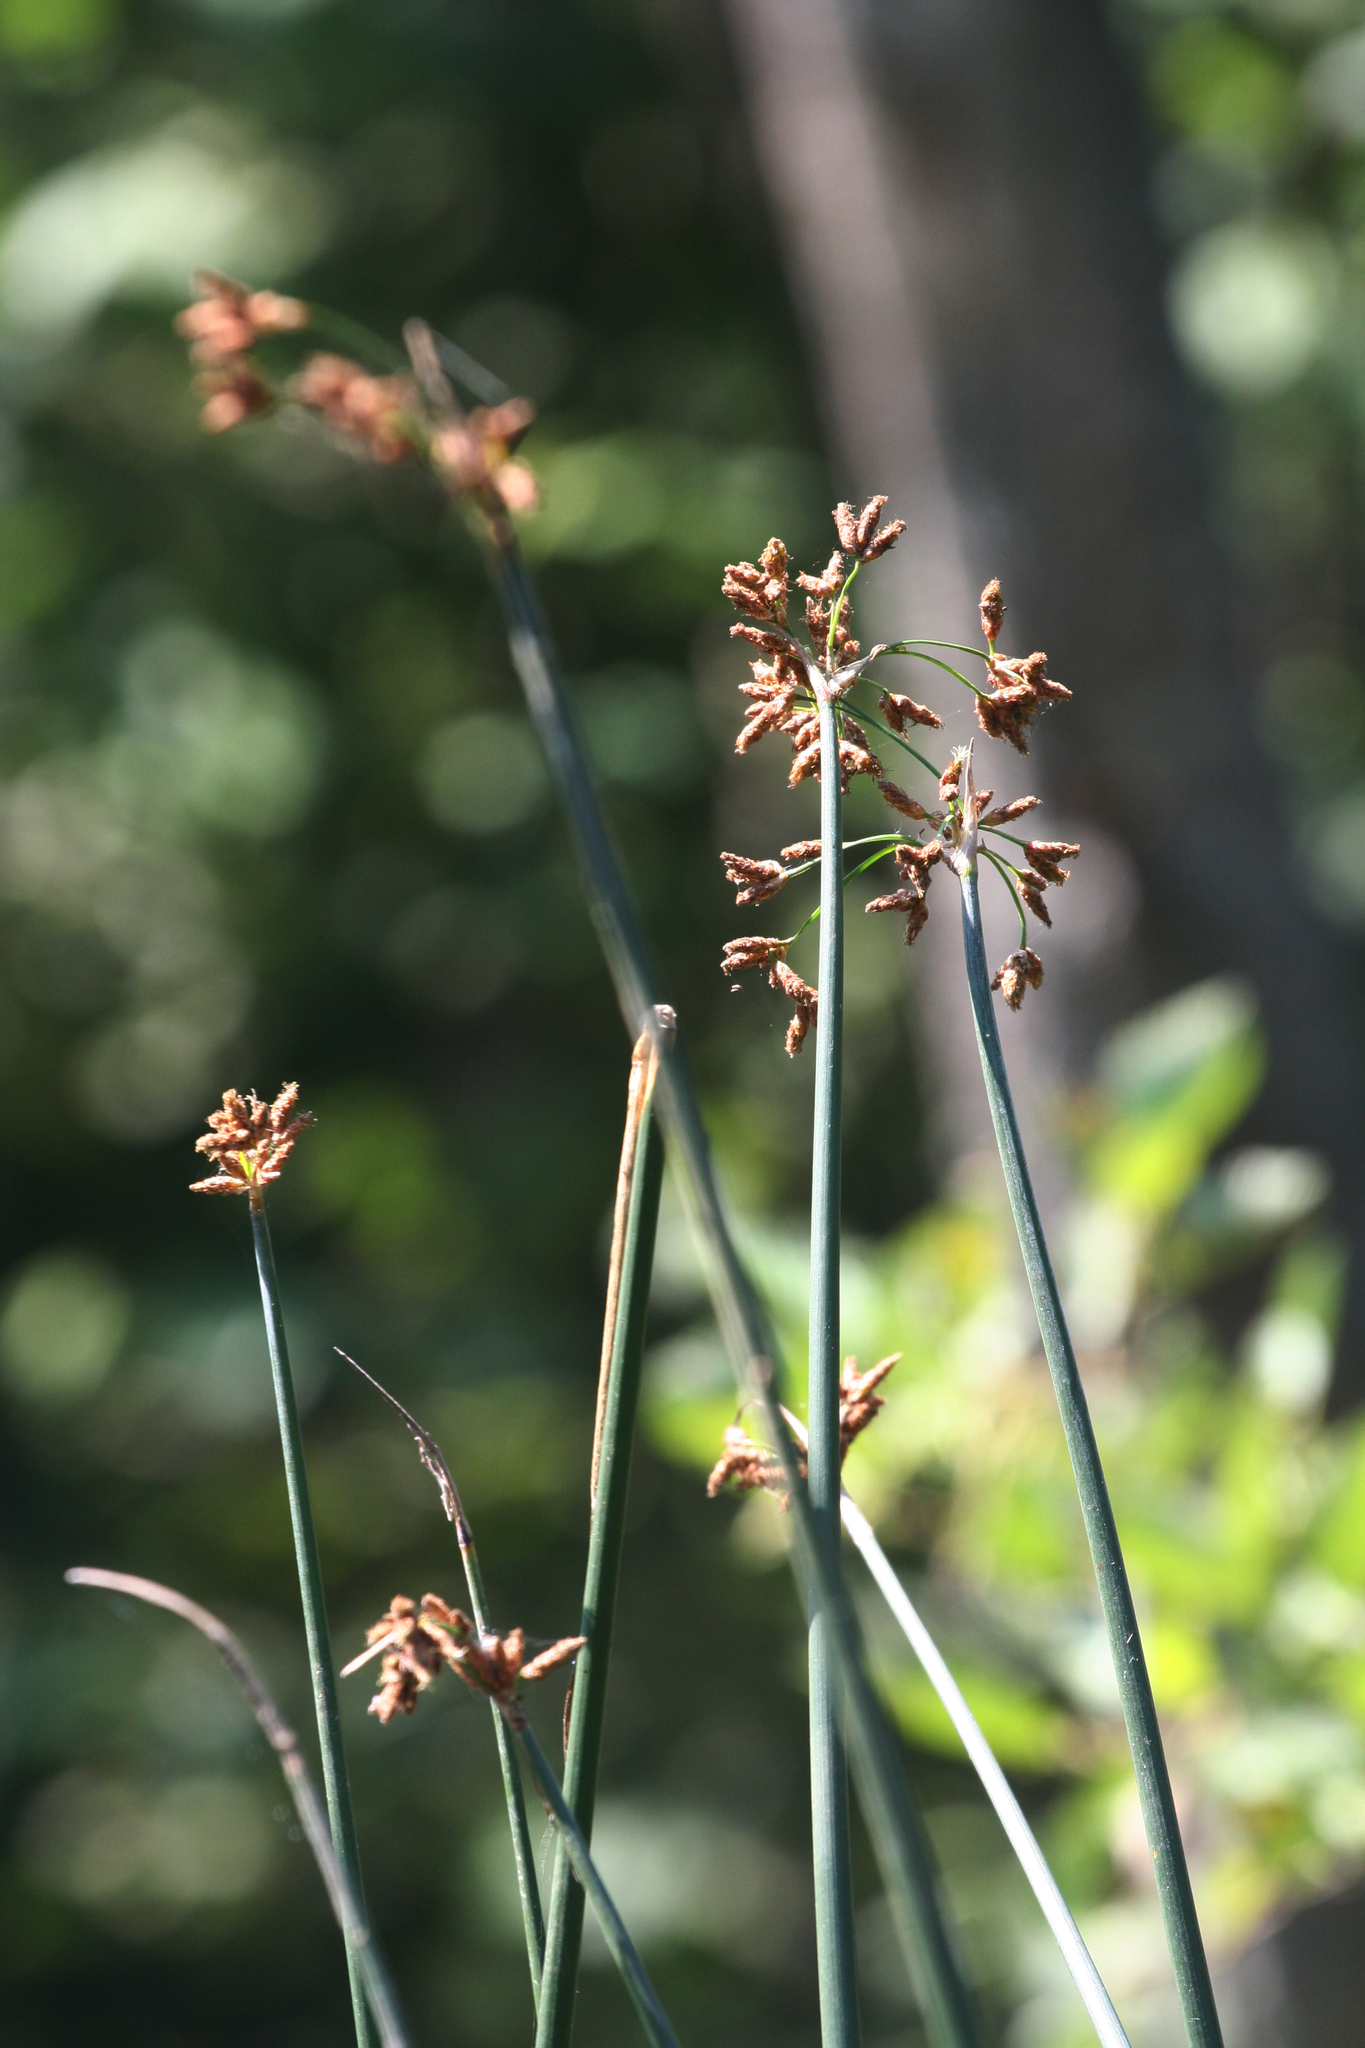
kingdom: Plantae
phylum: Tracheophyta
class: Liliopsida
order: Poales
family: Cyperaceae
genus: Schoenoplectus
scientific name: Schoenoplectus lacustris
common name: Common club-rush
